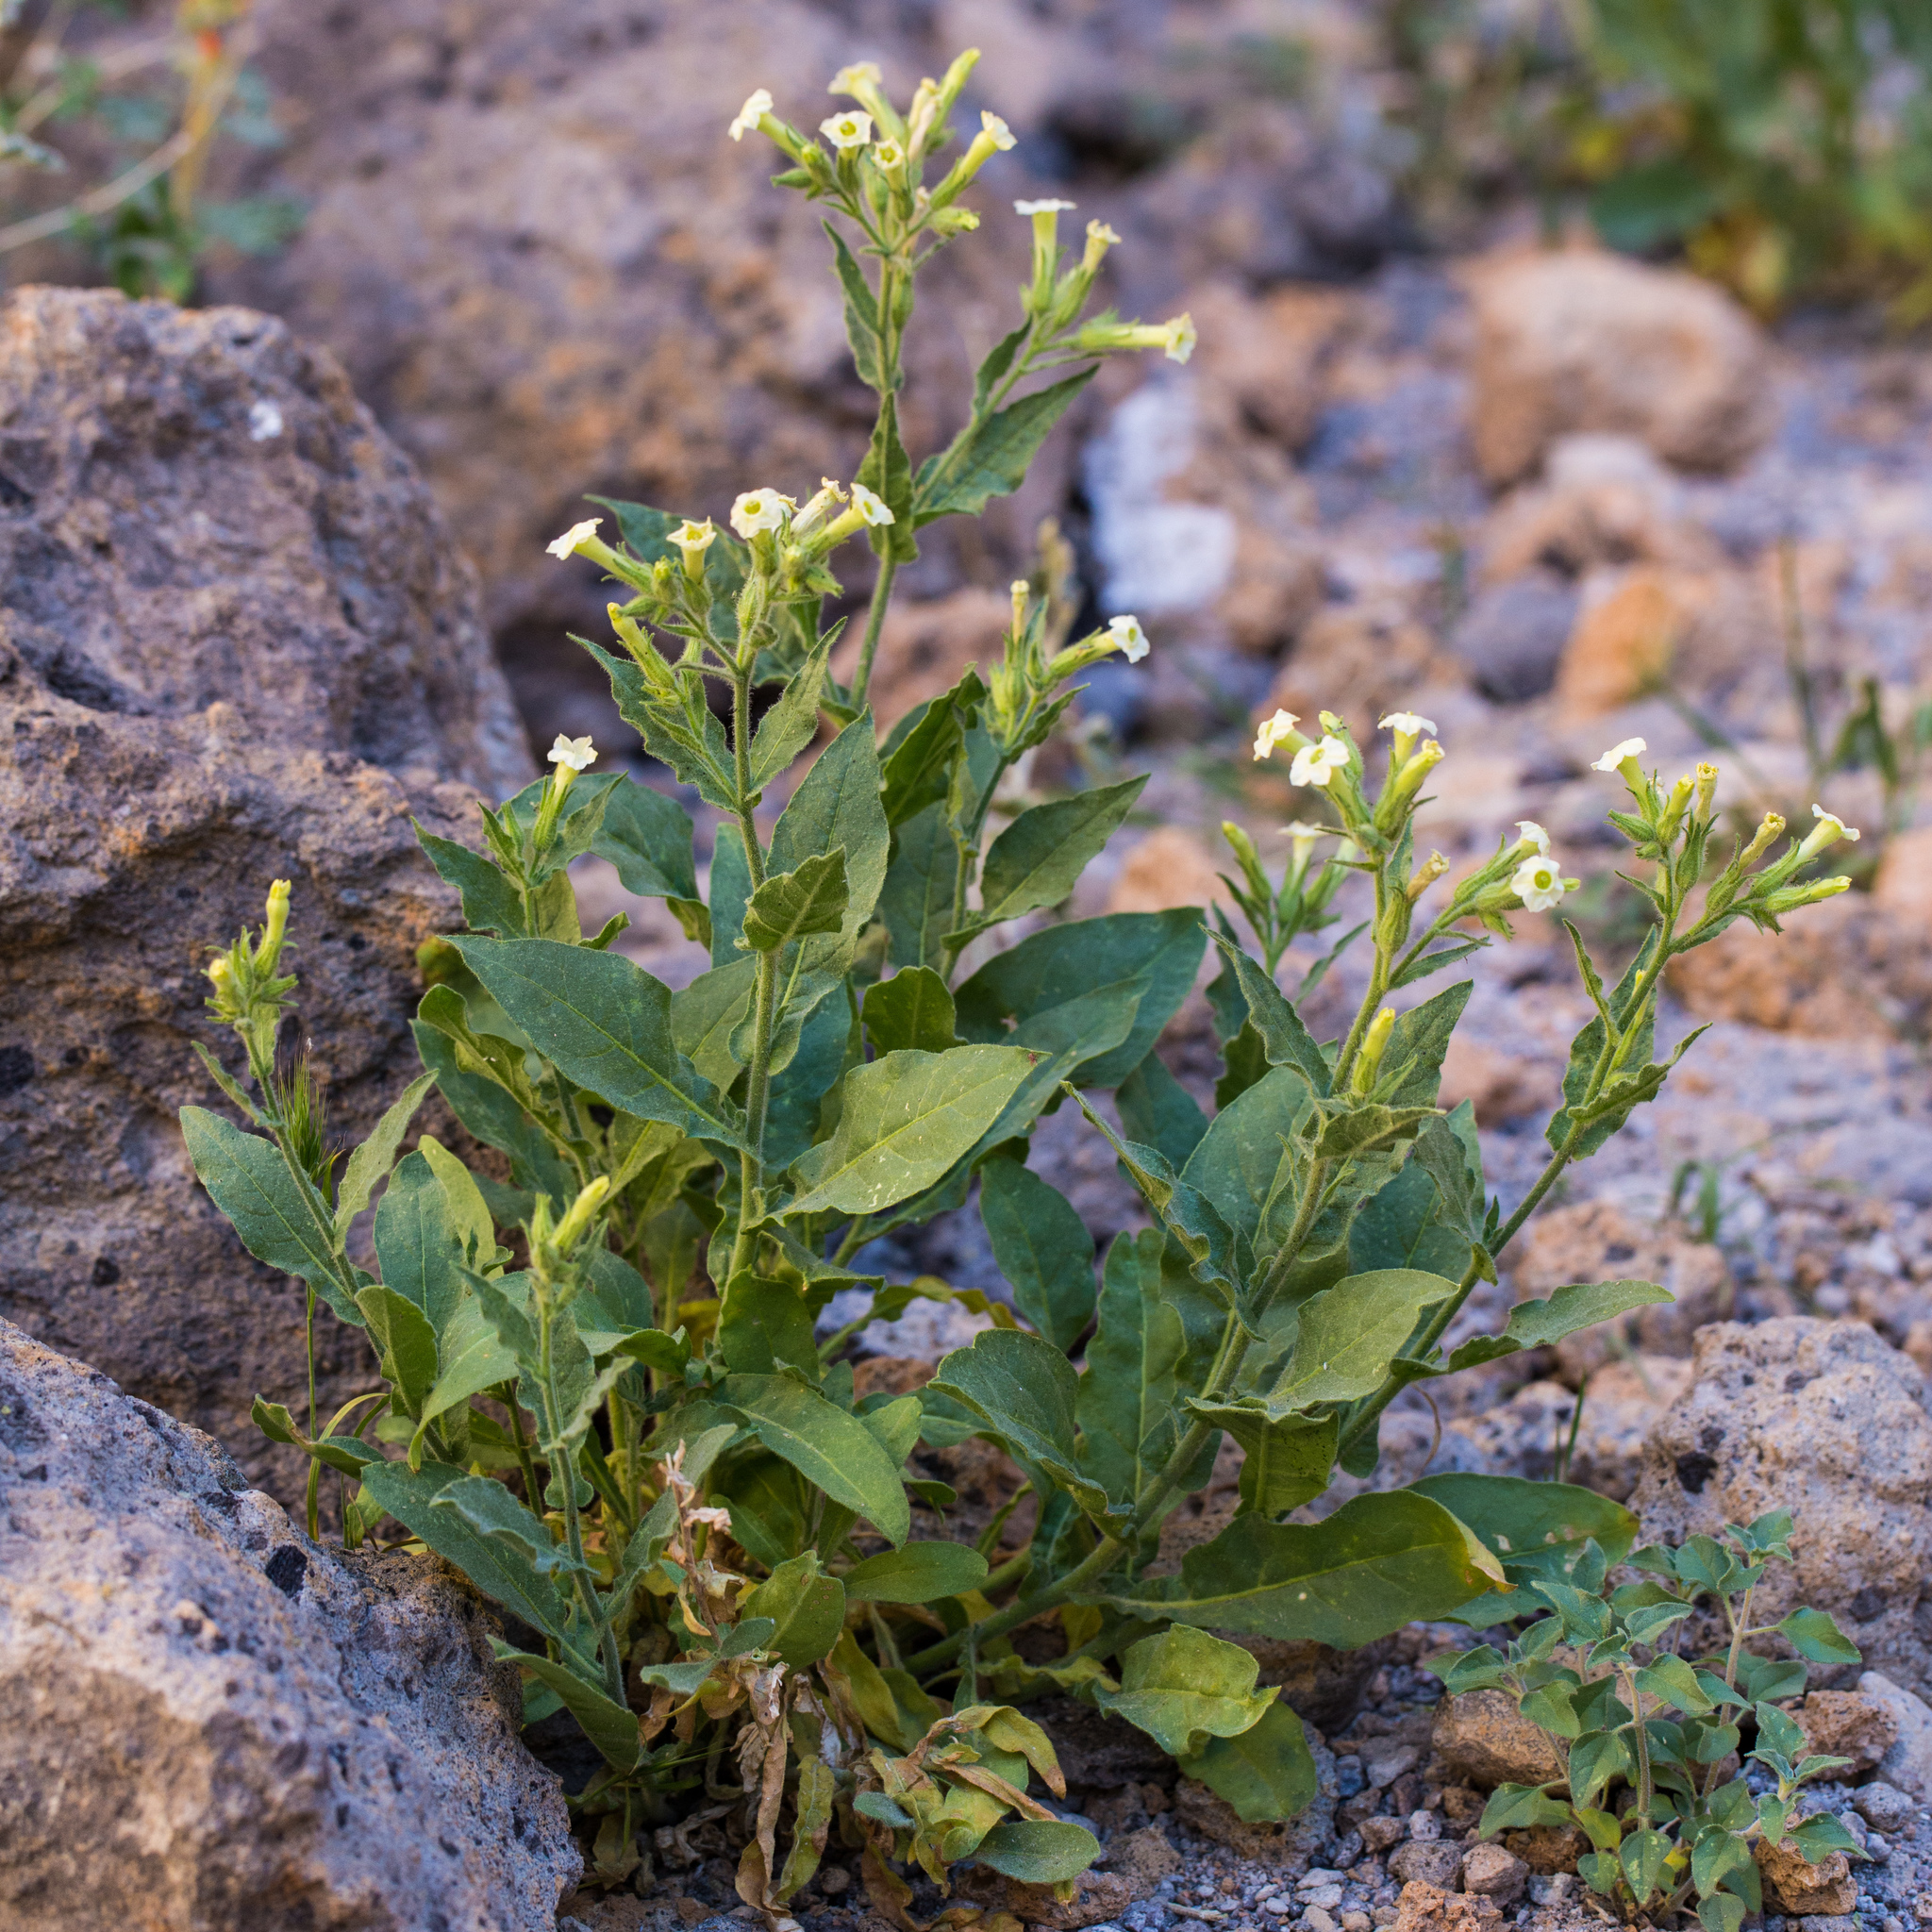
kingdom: Plantae
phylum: Tracheophyta
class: Magnoliopsida
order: Solanales
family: Solanaceae
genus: Nicotiana
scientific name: Nicotiana obtusifolia
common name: Desert tobacco
